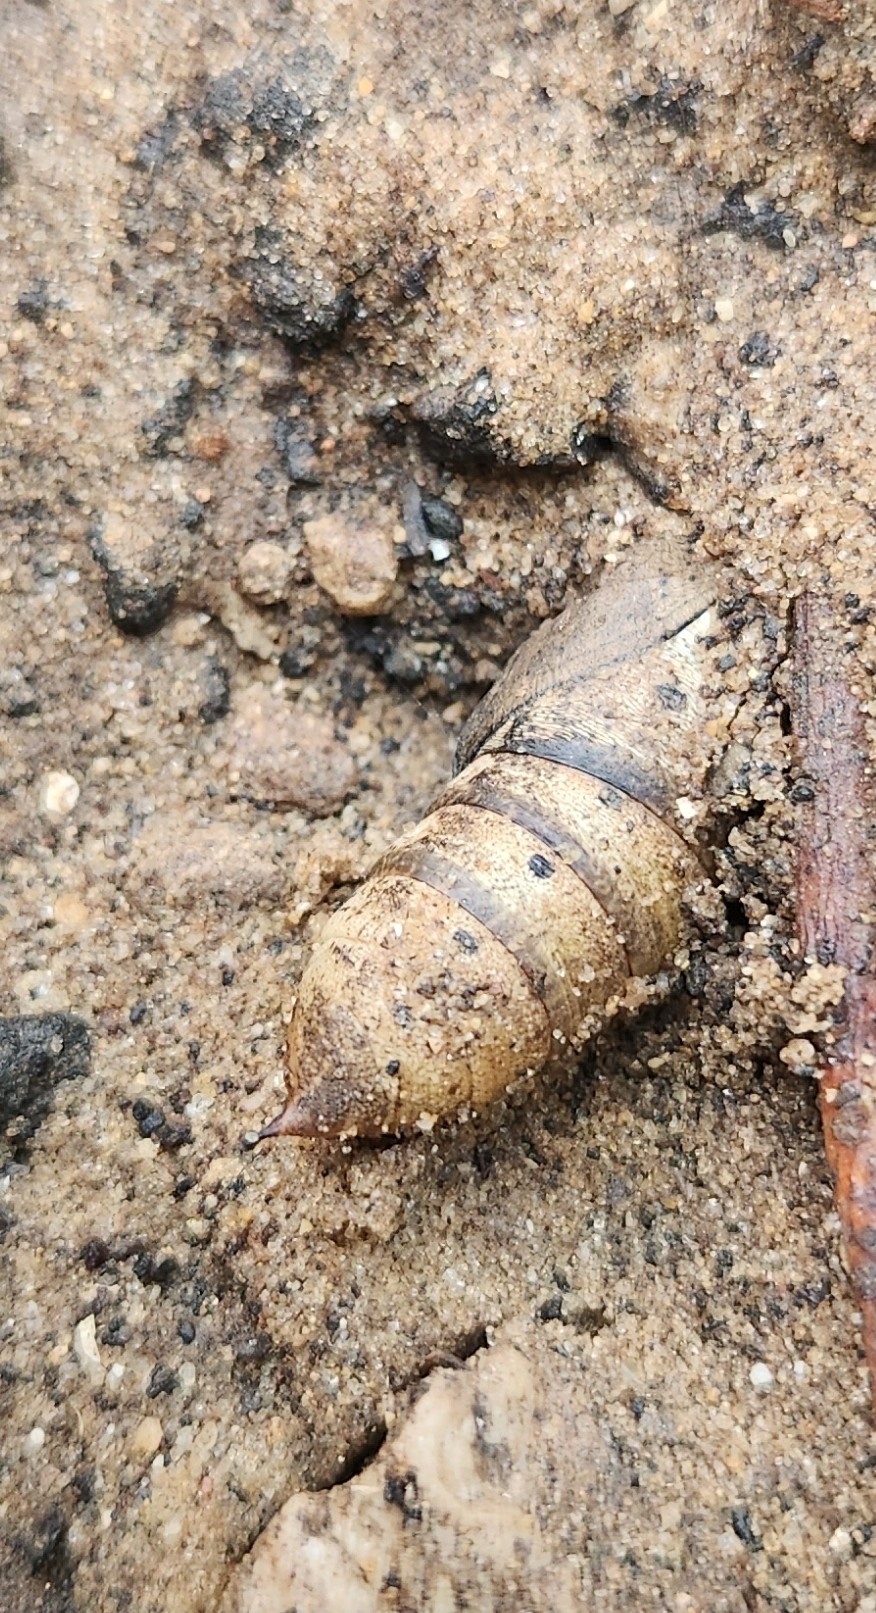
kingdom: Animalia
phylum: Arthropoda
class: Insecta
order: Lepidoptera
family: Sphingidae
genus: Hippotion
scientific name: Hippotion celerio
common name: Silver-striped hawk-moth
